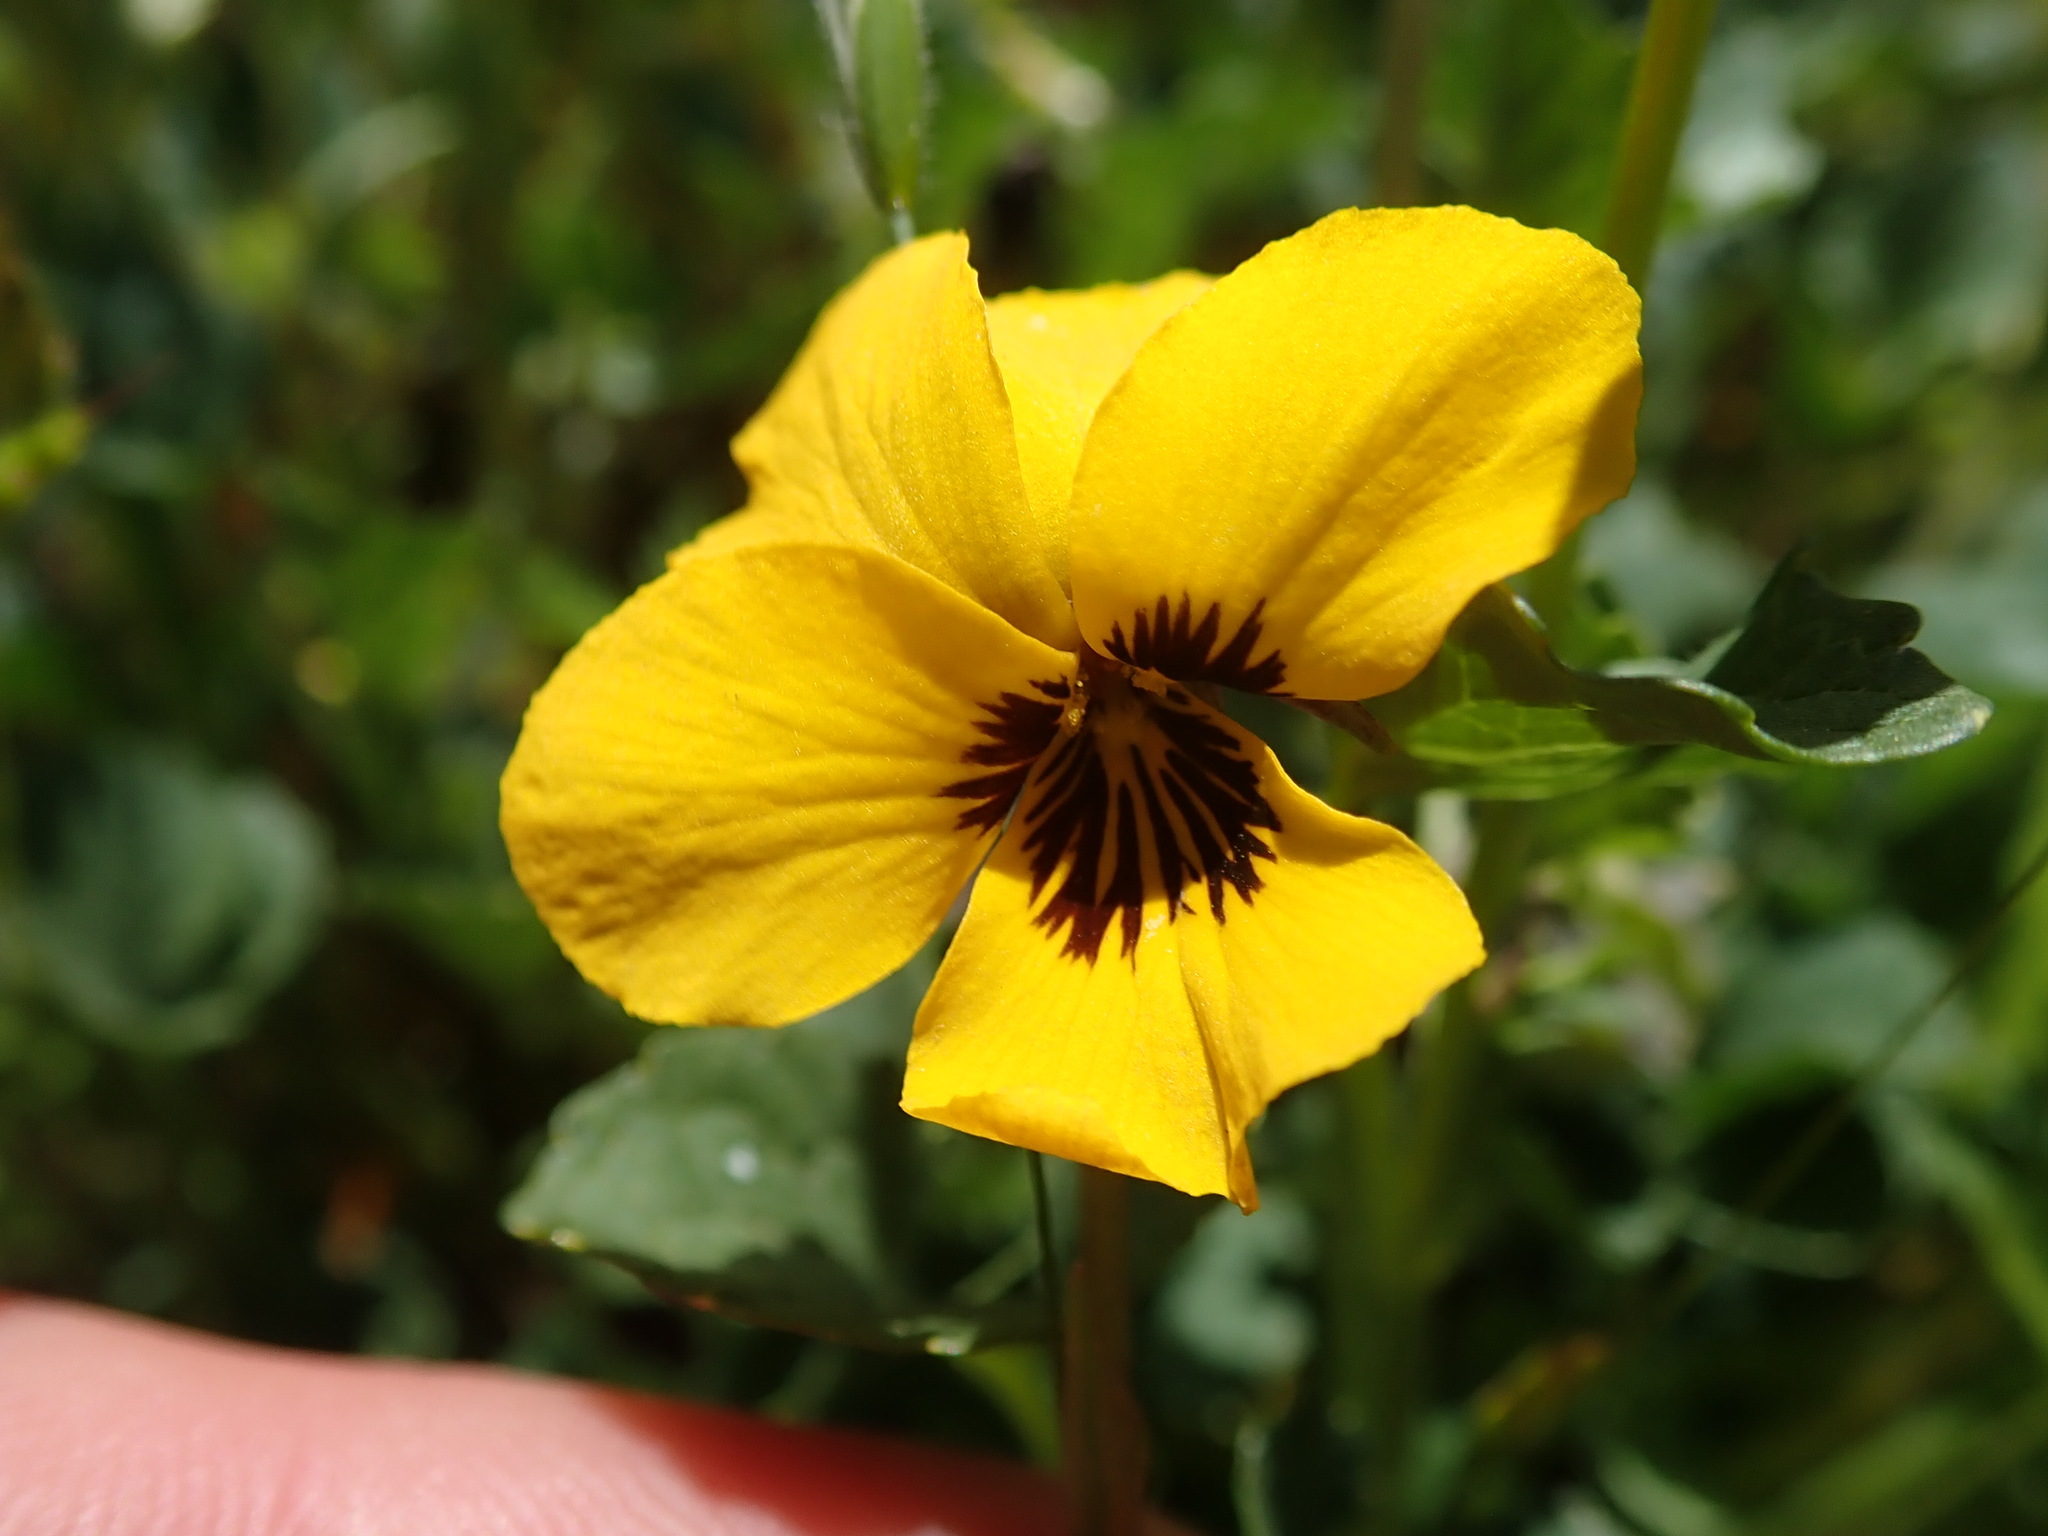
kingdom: Plantae
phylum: Tracheophyta
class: Magnoliopsida
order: Malpighiales
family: Violaceae
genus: Viola
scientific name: Viola pedunculata
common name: California golden violet
